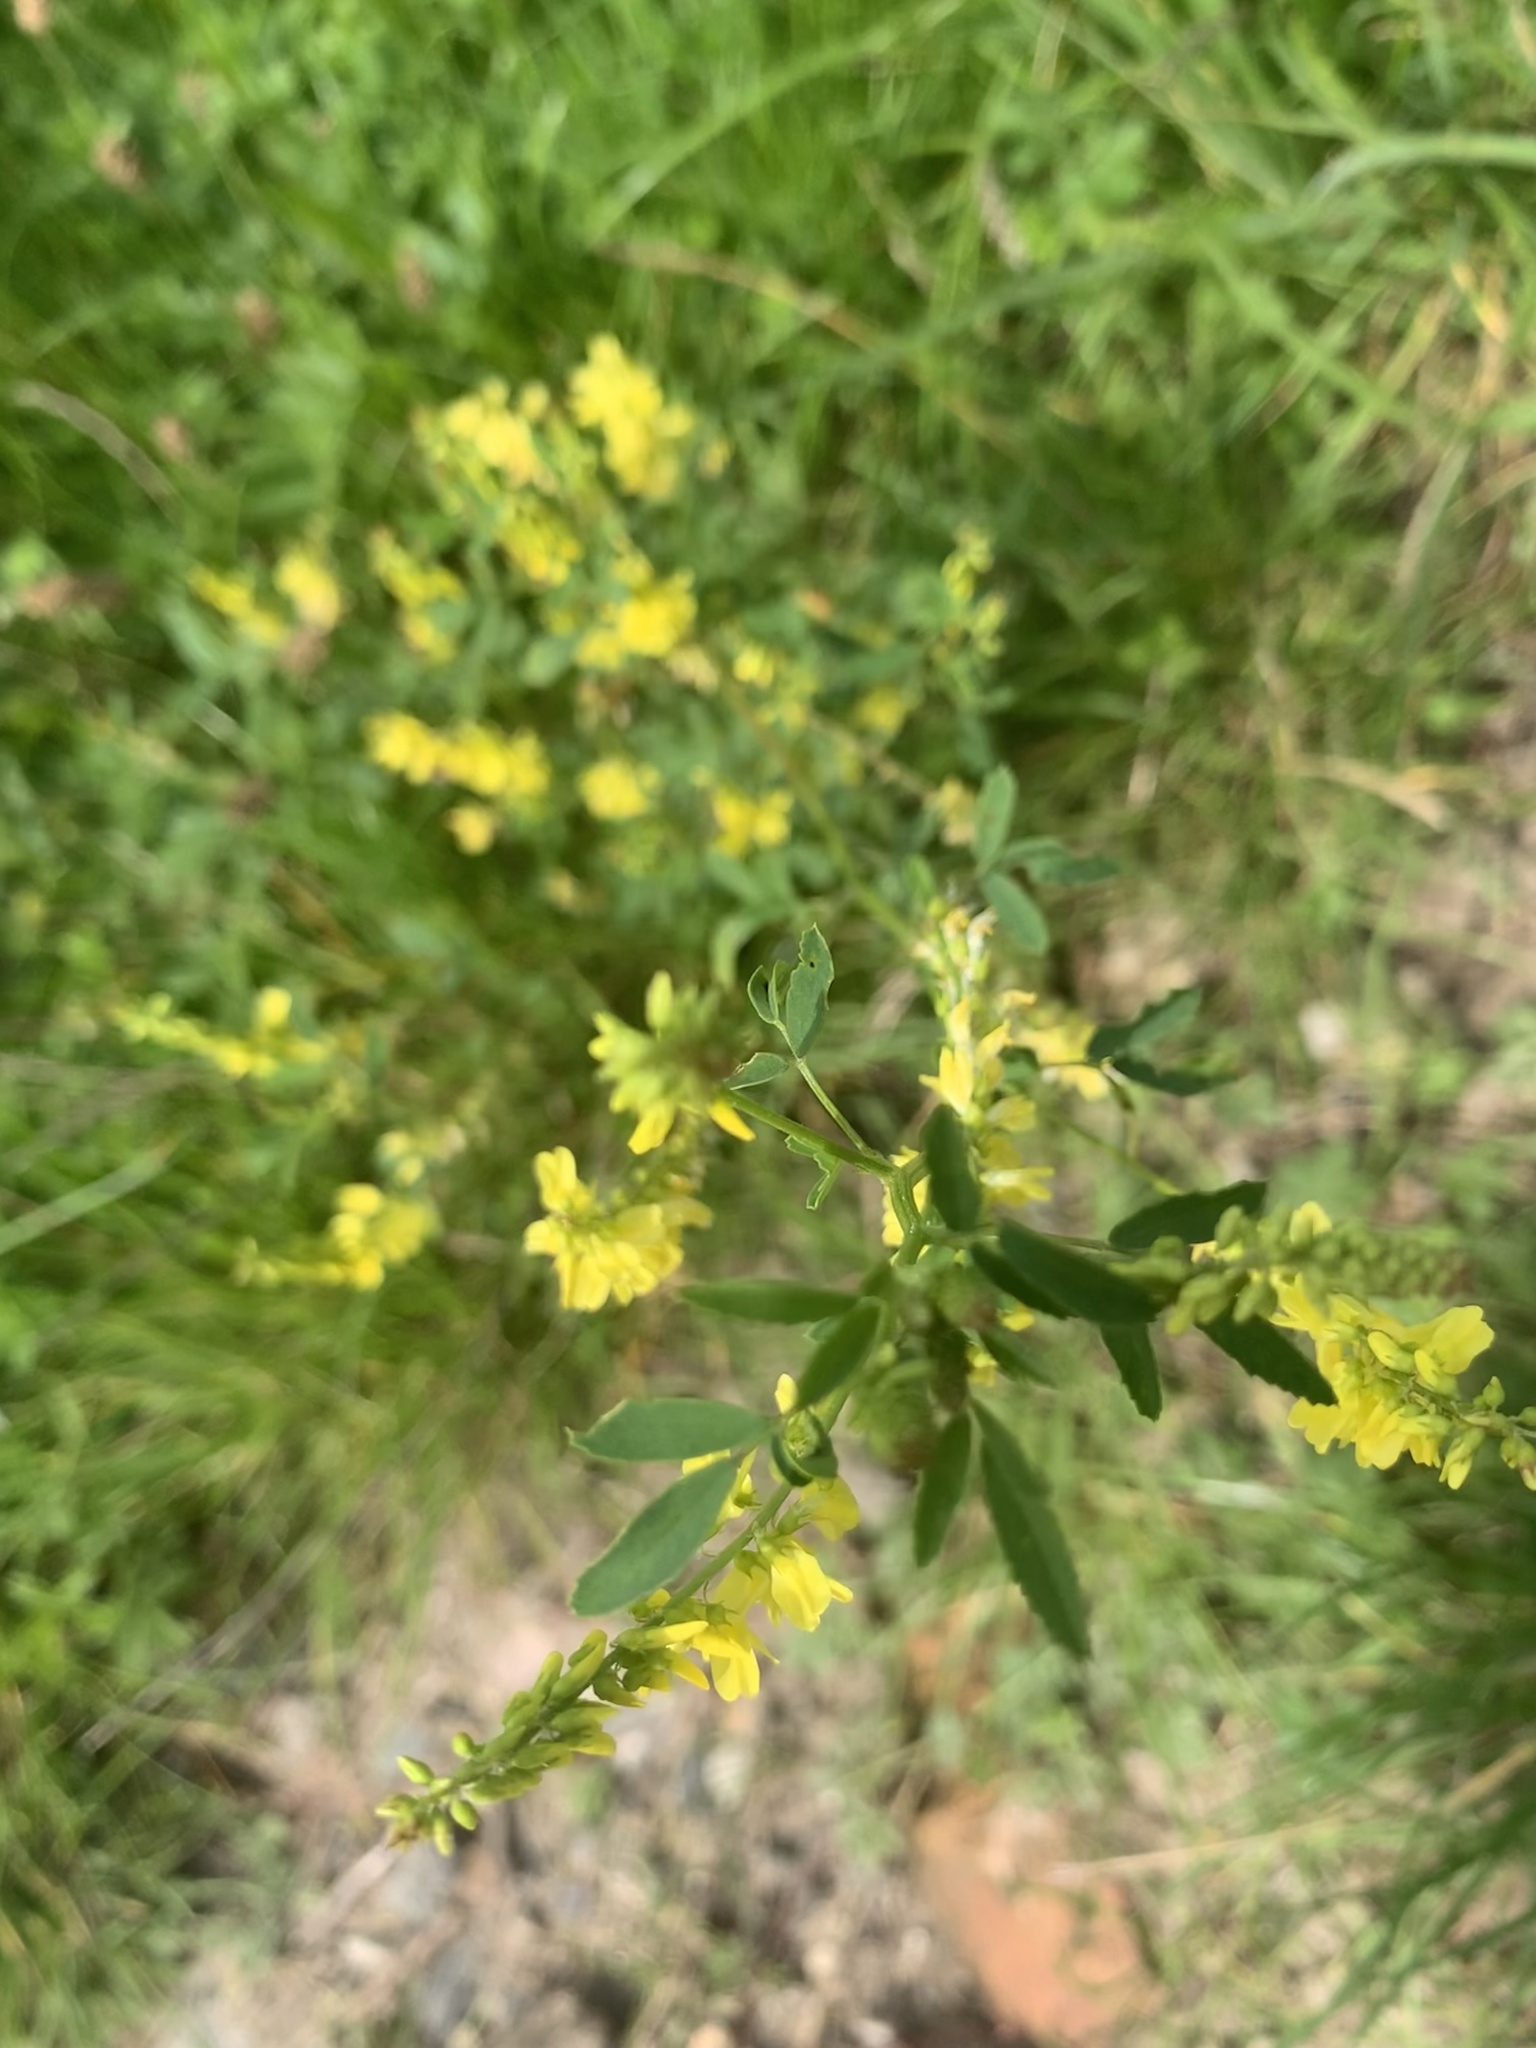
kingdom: Plantae
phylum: Tracheophyta
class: Magnoliopsida
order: Fabales
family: Fabaceae
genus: Melilotus
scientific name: Melilotus officinalis
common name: Sweetclover
